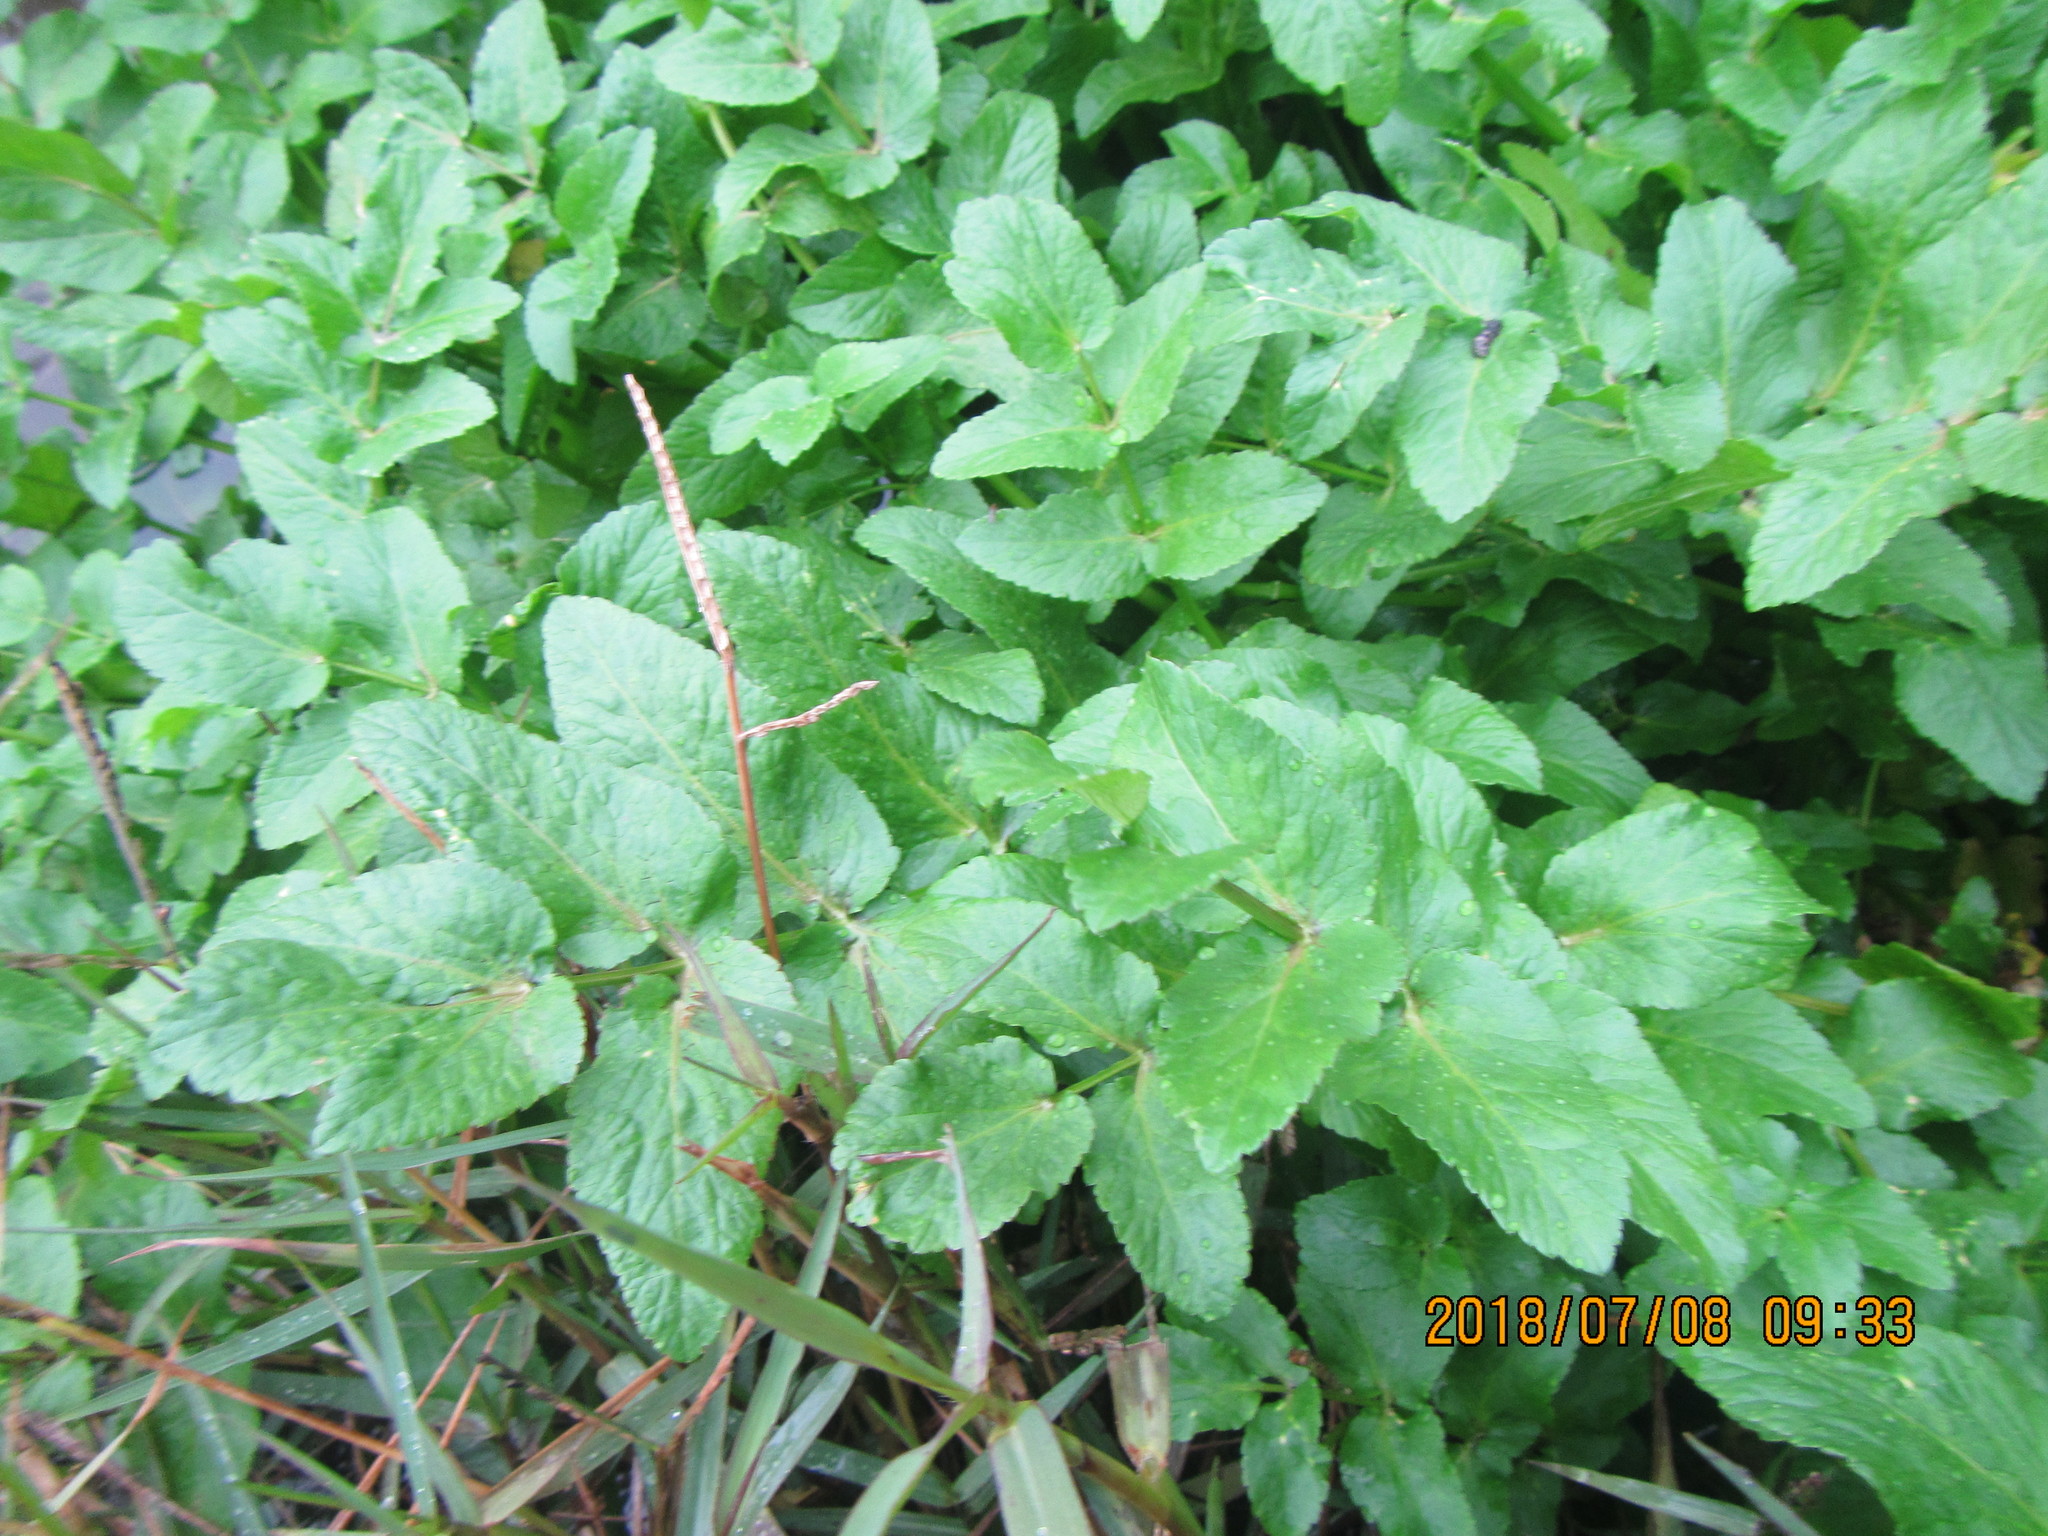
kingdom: Plantae
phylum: Tracheophyta
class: Magnoliopsida
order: Apiales
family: Apiaceae
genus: Helosciadium
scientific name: Helosciadium nodiflorum
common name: Fool's-watercress
